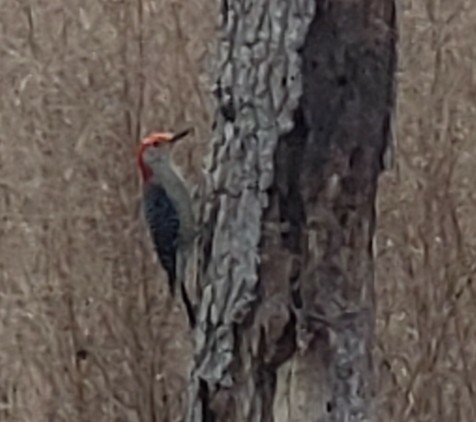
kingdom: Animalia
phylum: Chordata
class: Aves
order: Piciformes
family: Picidae
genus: Melanerpes
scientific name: Melanerpes carolinus
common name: Red-bellied woodpecker
